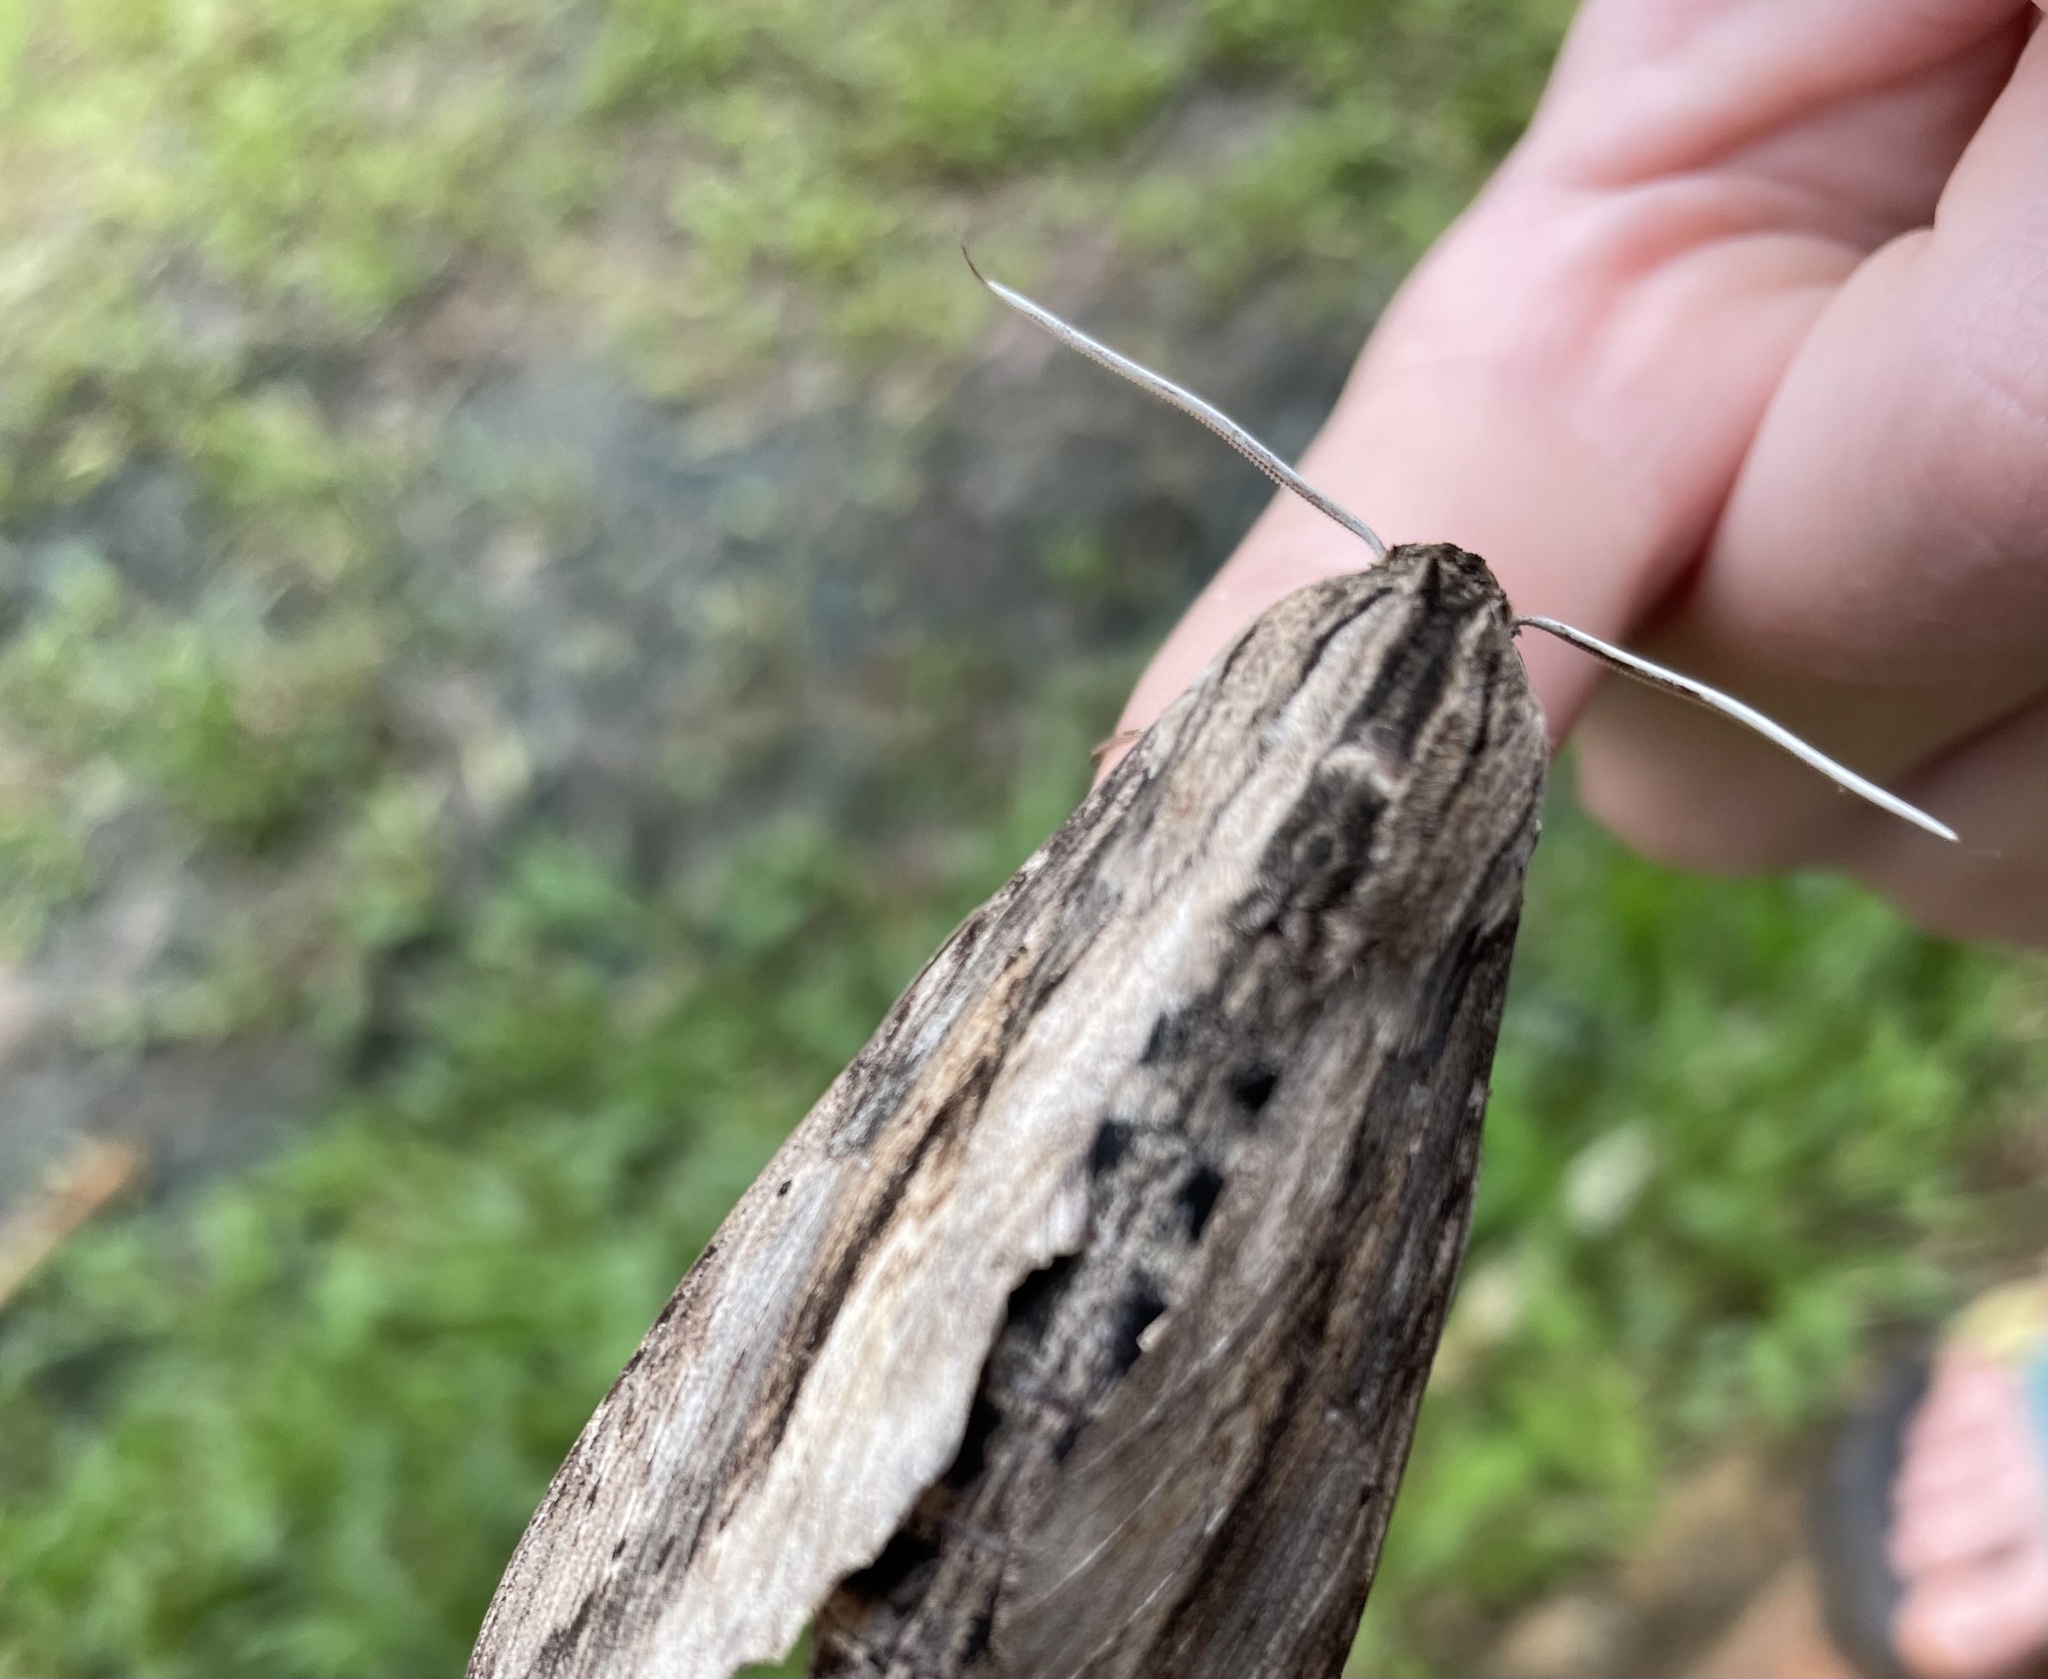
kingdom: Animalia
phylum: Arthropoda
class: Insecta
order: Lepidoptera
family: Sphingidae
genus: Erinnyis
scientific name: Erinnyis ello
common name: Ello sphinx
